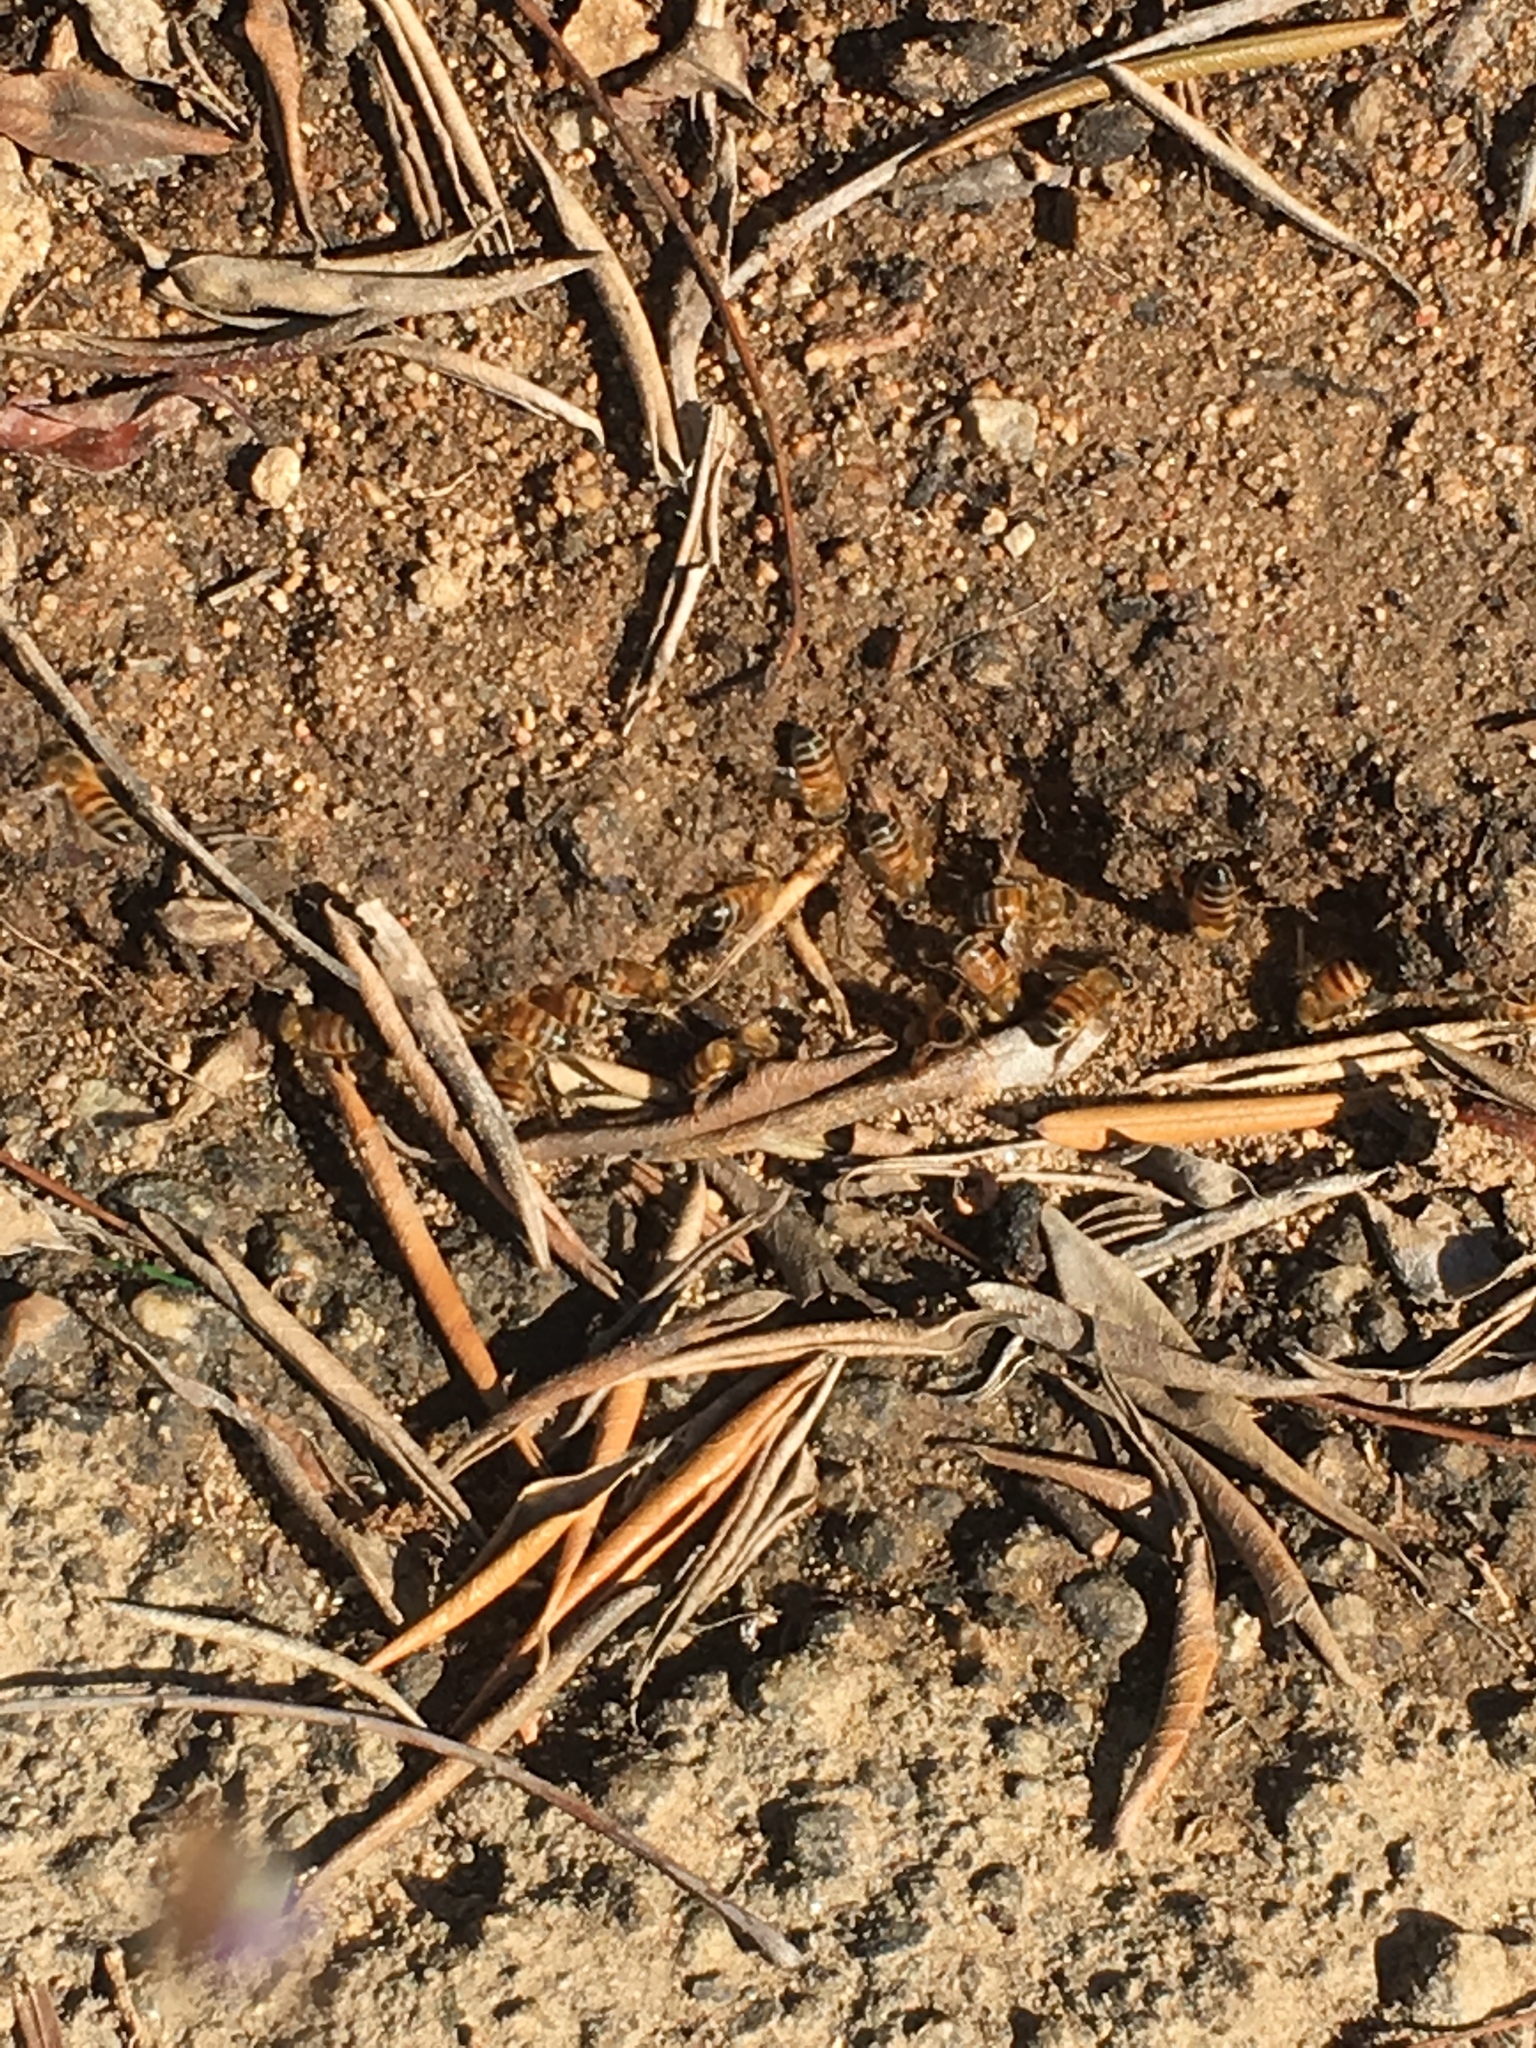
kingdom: Animalia
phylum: Arthropoda
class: Insecta
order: Hymenoptera
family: Apidae
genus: Apis
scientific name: Apis mellifera
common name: Honey bee
